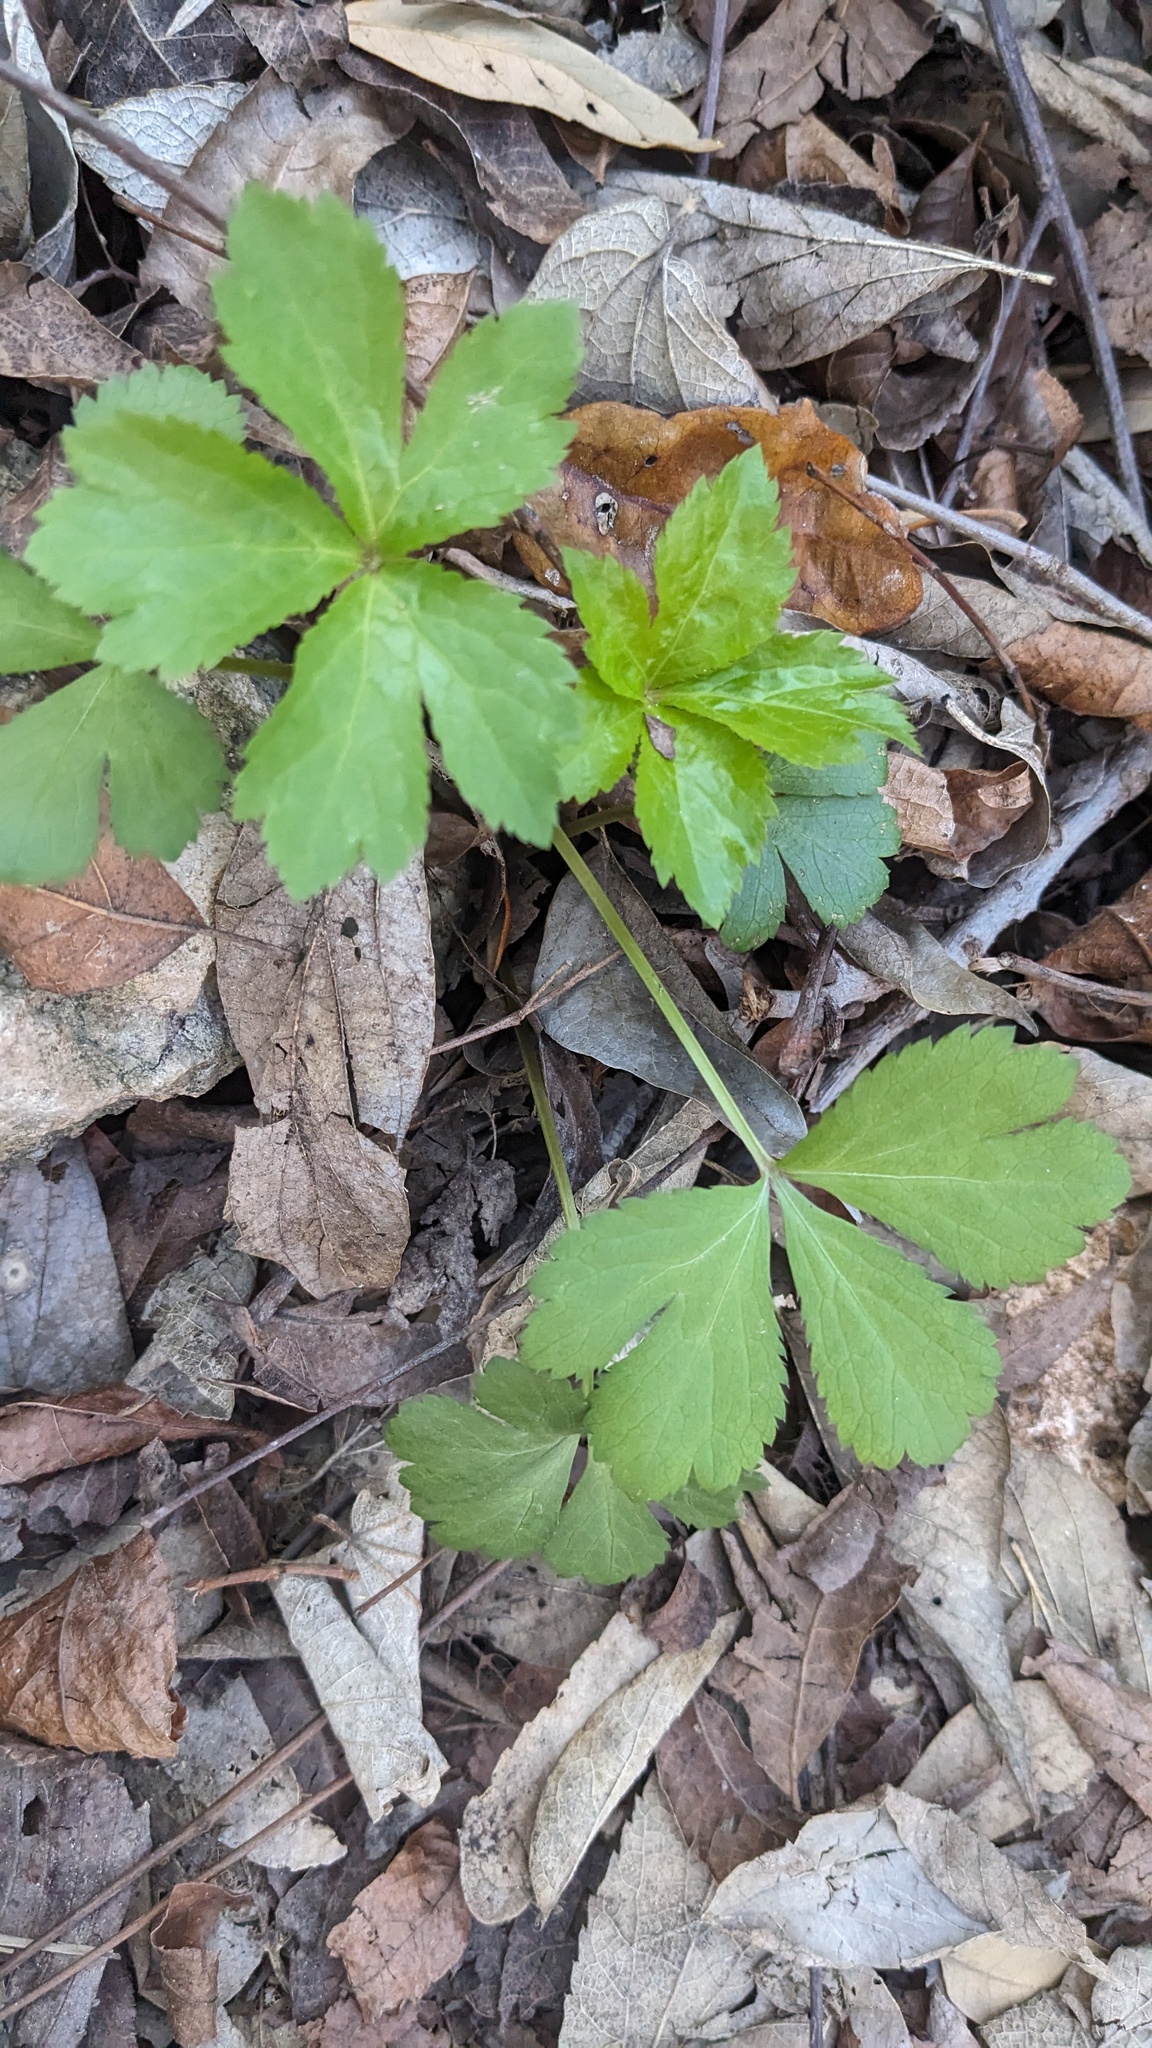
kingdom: Plantae
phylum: Tracheophyta
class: Magnoliopsida
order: Apiales
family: Apiaceae
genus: Sanicula
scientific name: Sanicula canadensis
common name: Canada sanicle
